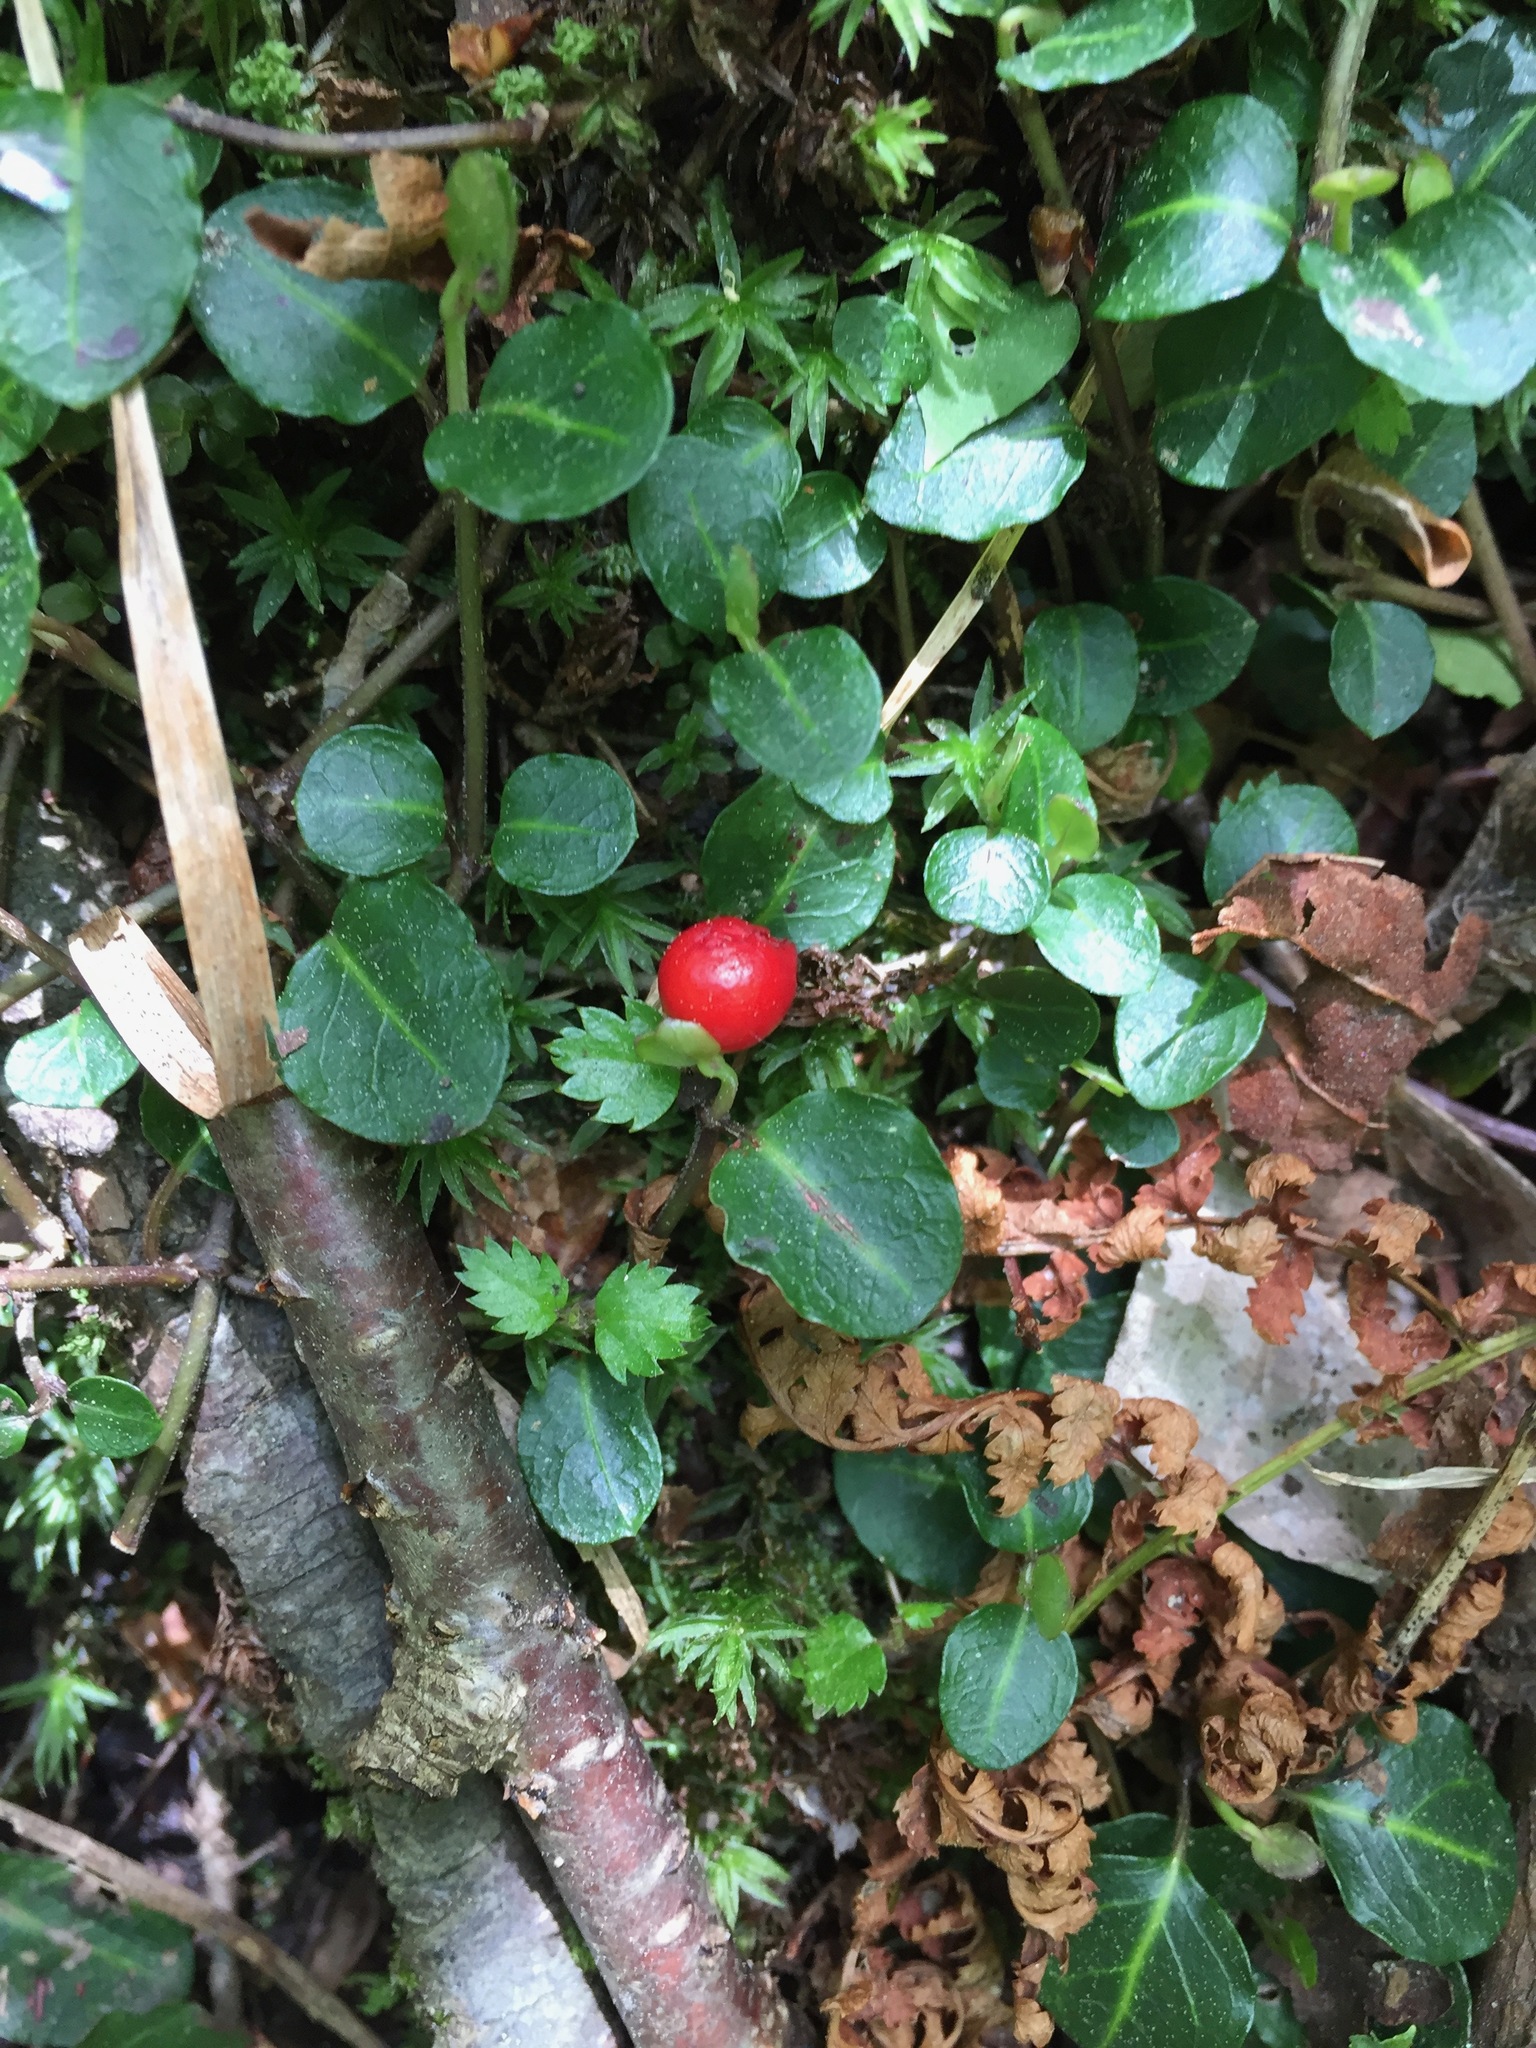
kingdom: Plantae
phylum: Tracheophyta
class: Magnoliopsida
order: Gentianales
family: Rubiaceae
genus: Mitchella
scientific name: Mitchella repens
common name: Partridge-berry
